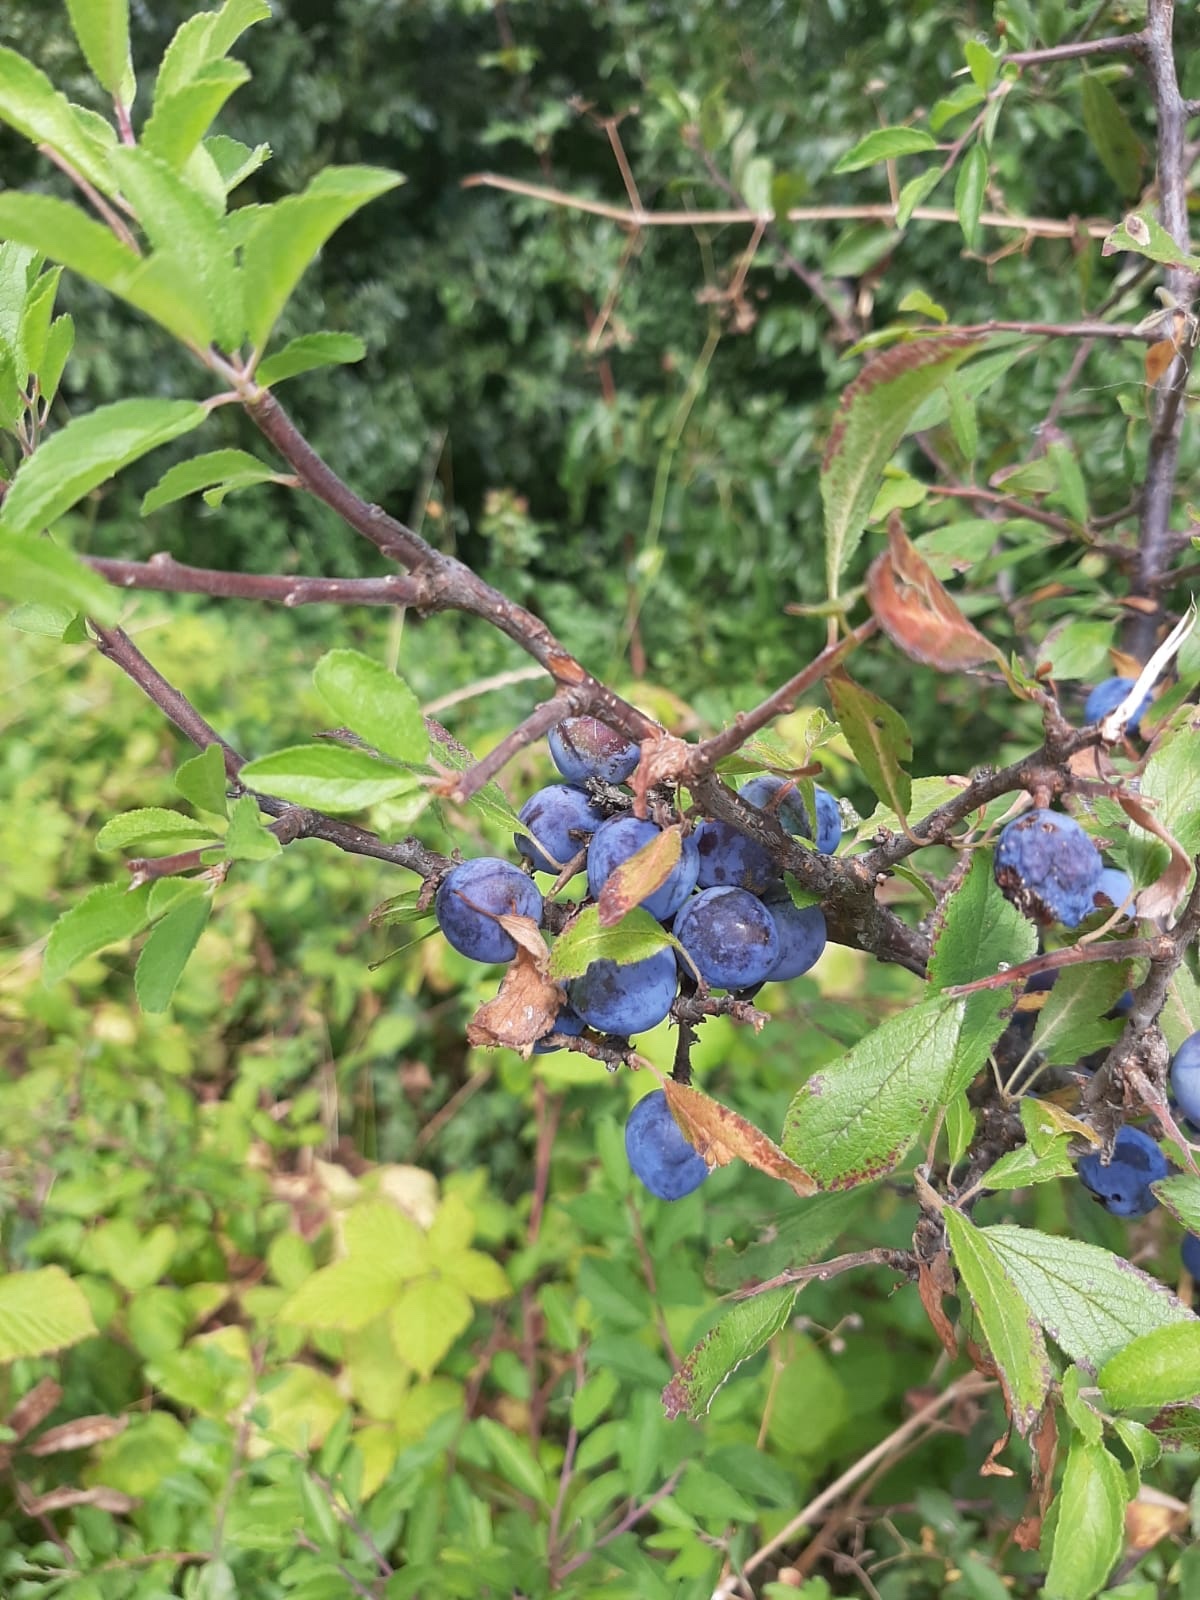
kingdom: Plantae
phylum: Tracheophyta
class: Magnoliopsida
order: Rosales
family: Rosaceae
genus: Prunus
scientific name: Prunus spinosa
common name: Blackthorn
